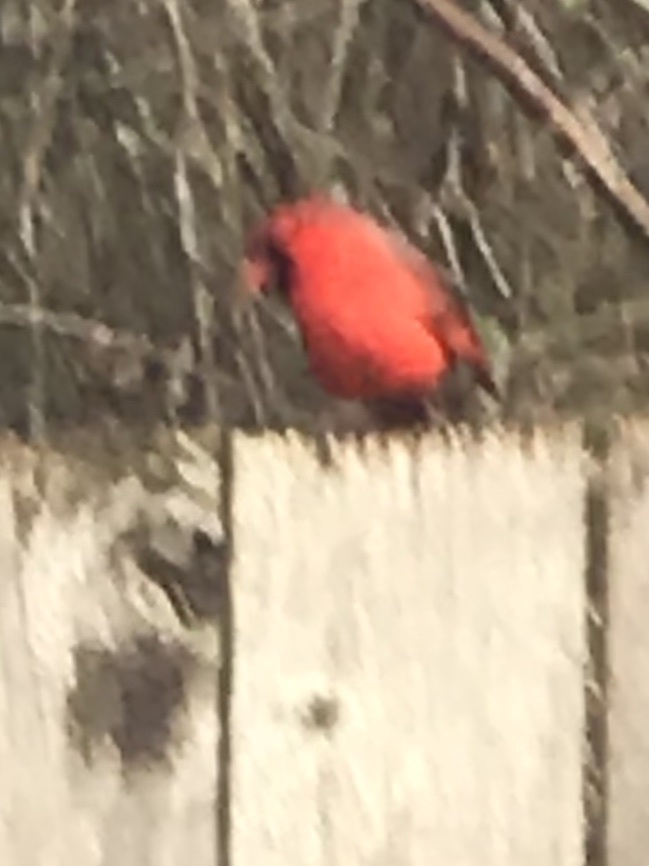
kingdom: Animalia
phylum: Chordata
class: Aves
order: Passeriformes
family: Cardinalidae
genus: Cardinalis
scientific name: Cardinalis cardinalis
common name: Northern cardinal
